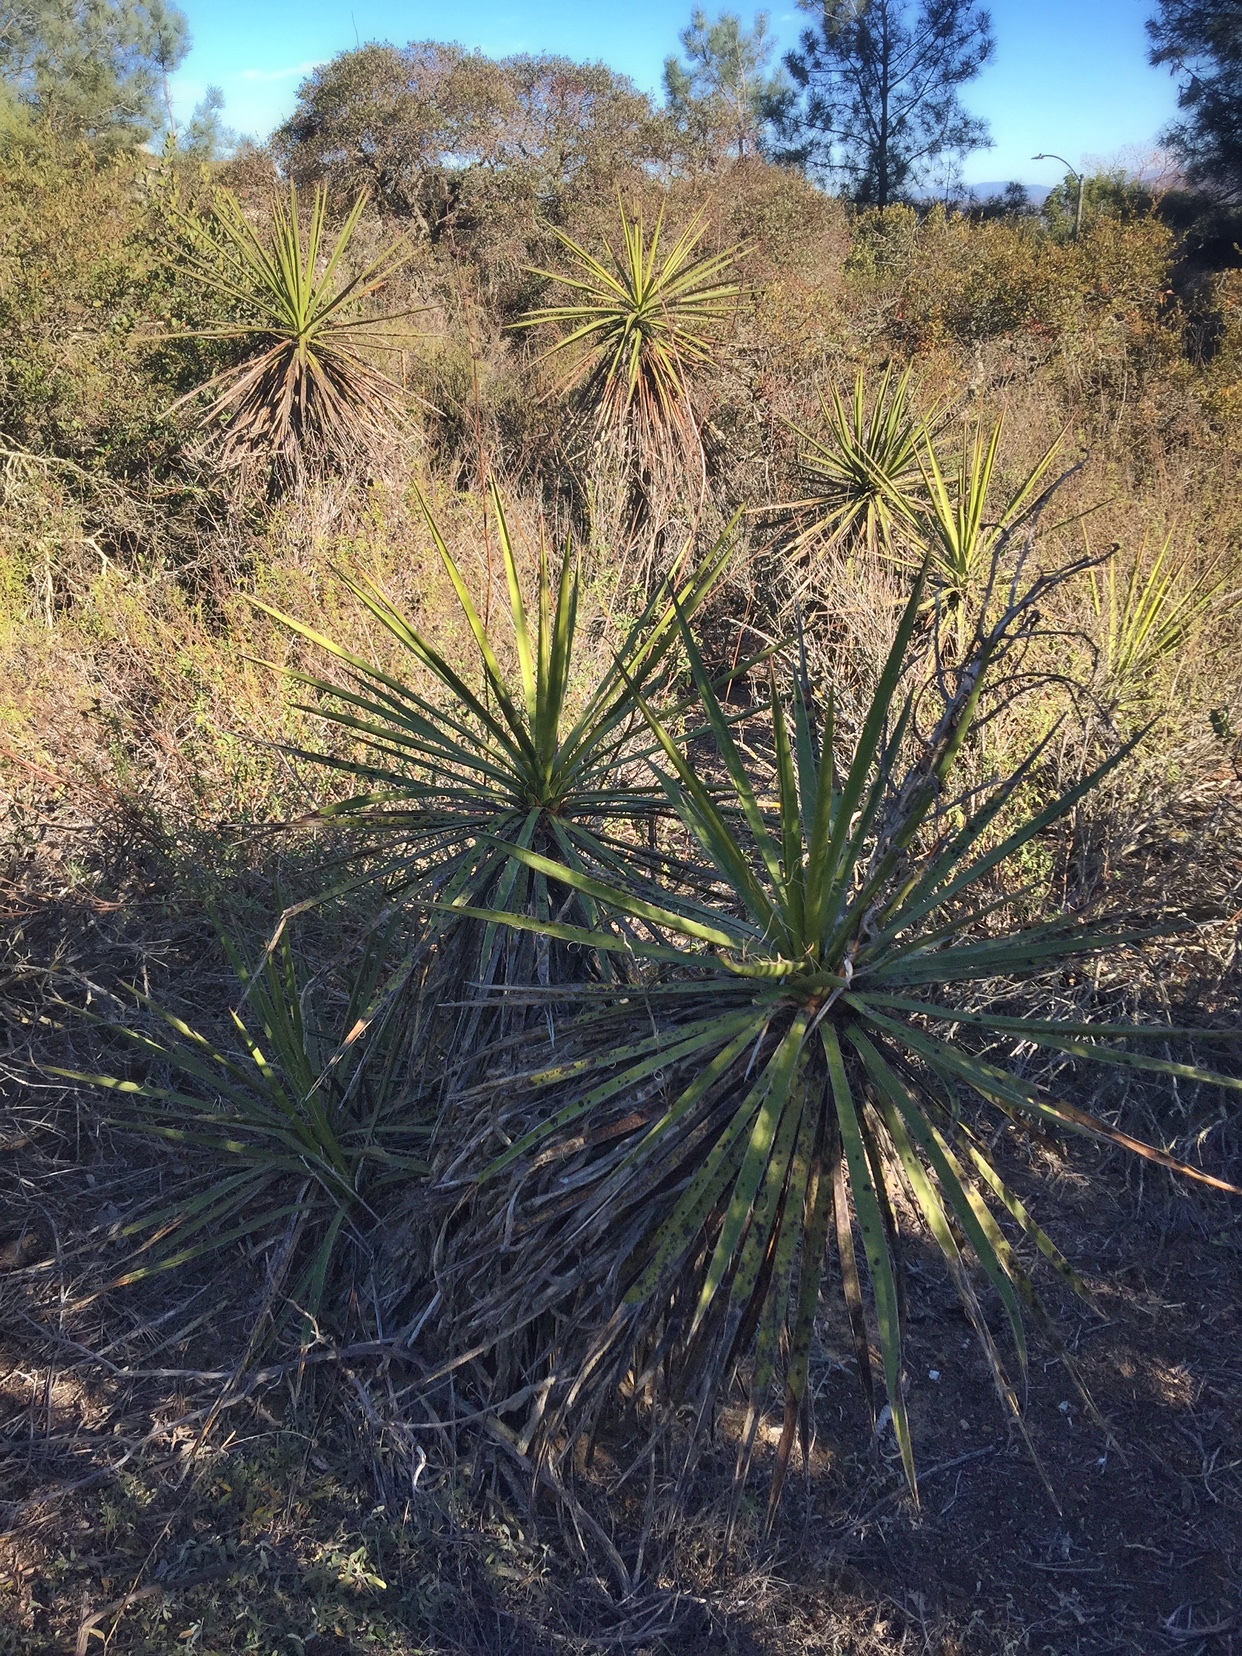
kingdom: Plantae
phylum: Tracheophyta
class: Liliopsida
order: Asparagales
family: Asparagaceae
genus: Yucca
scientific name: Yucca schidigera
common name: Mojave yucca
